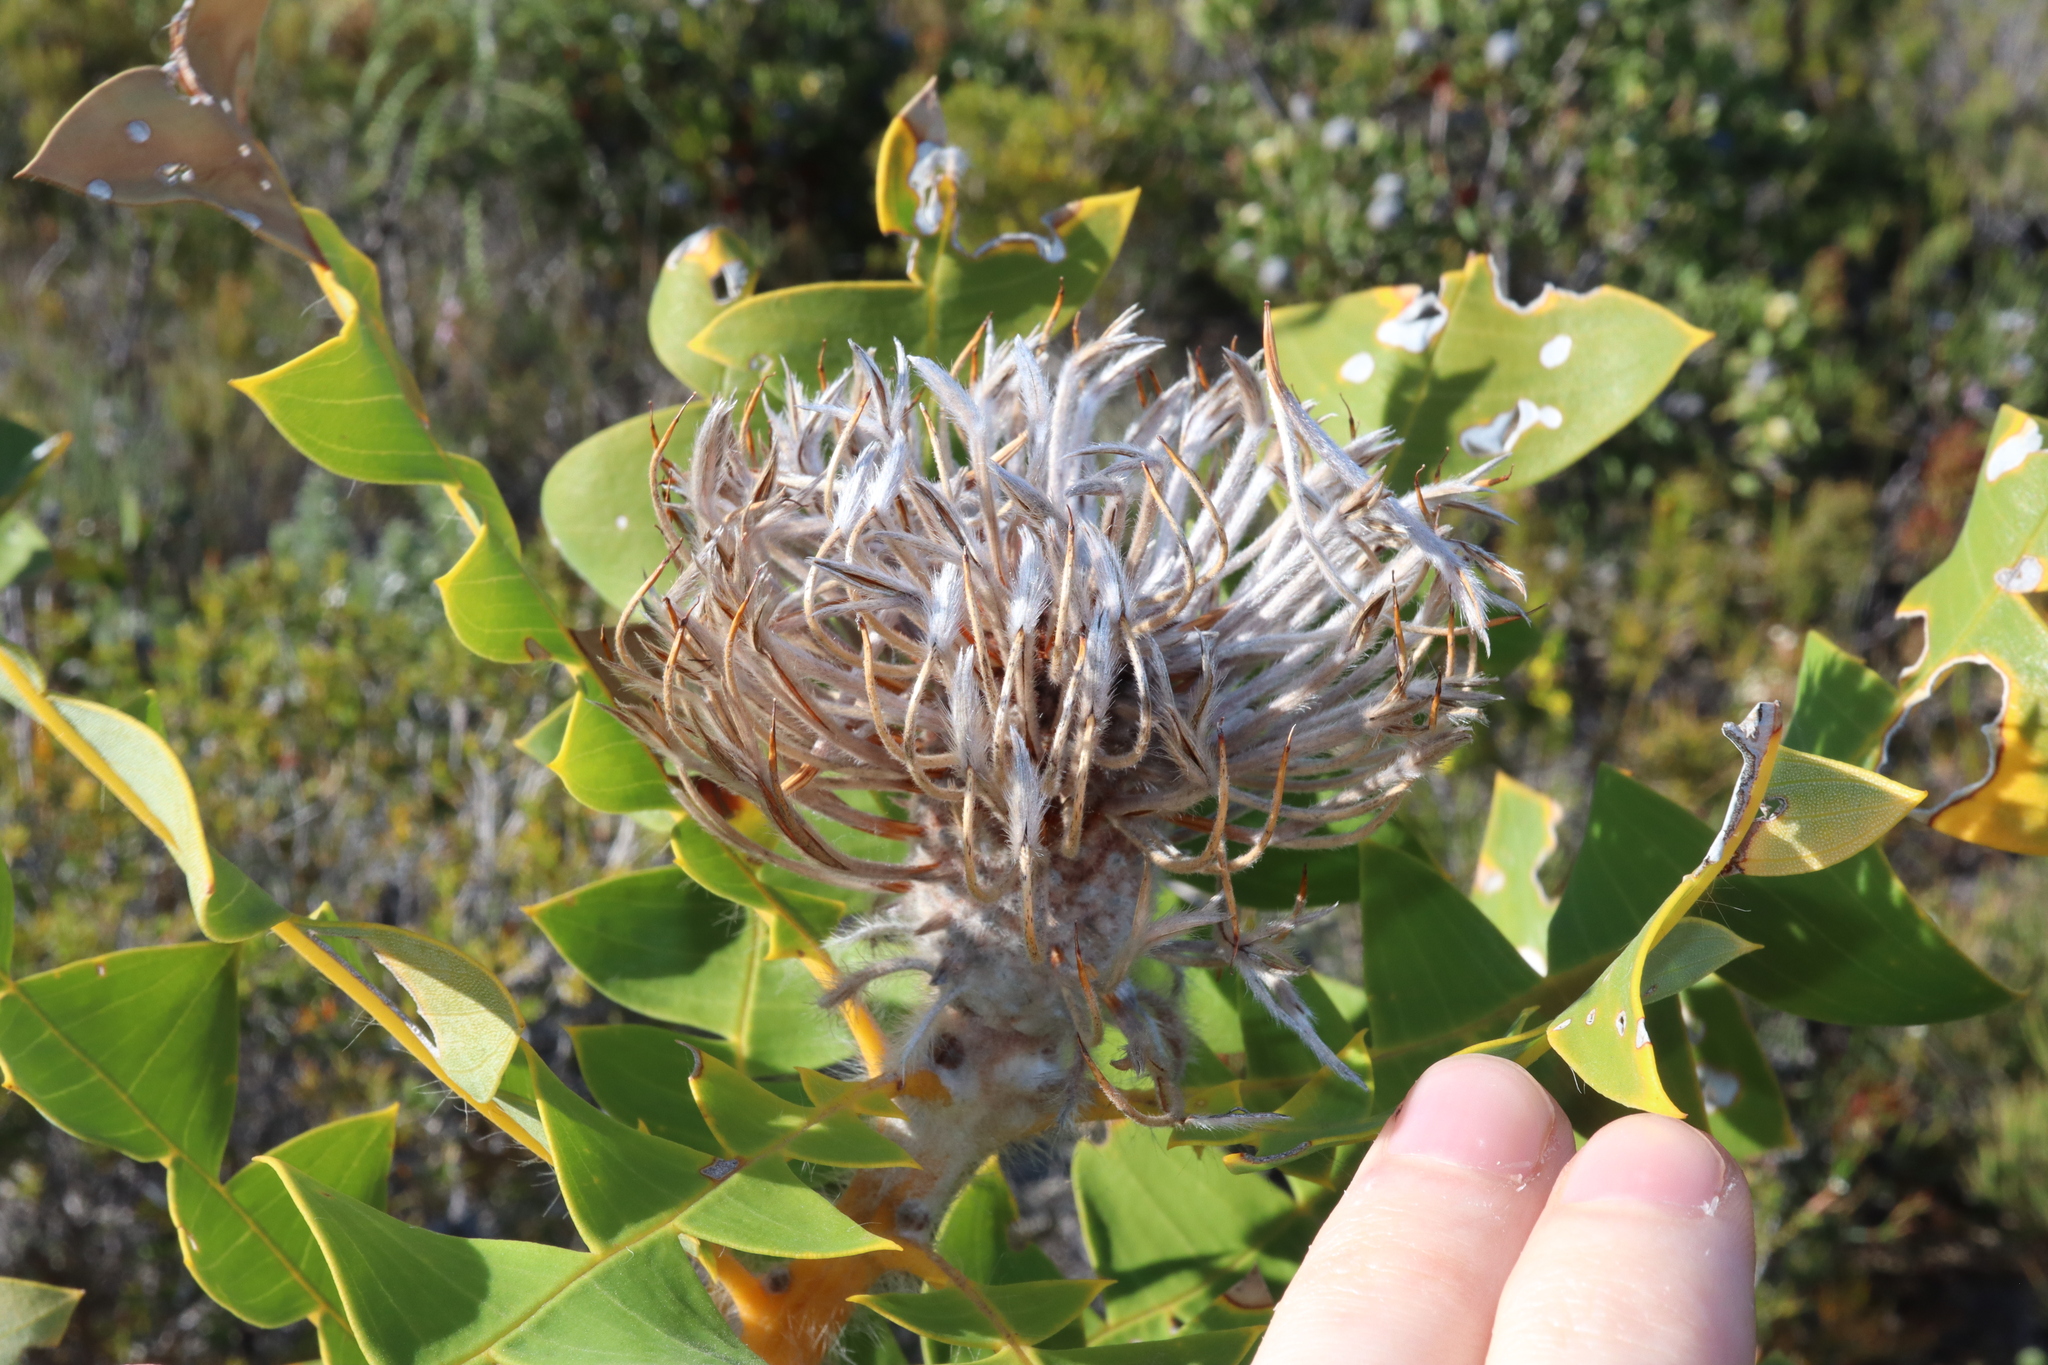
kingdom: Plantae
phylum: Tracheophyta
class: Magnoliopsida
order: Proteales
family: Proteaceae
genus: Banksia
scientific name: Banksia baxteri
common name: Bird's-nest banksia
